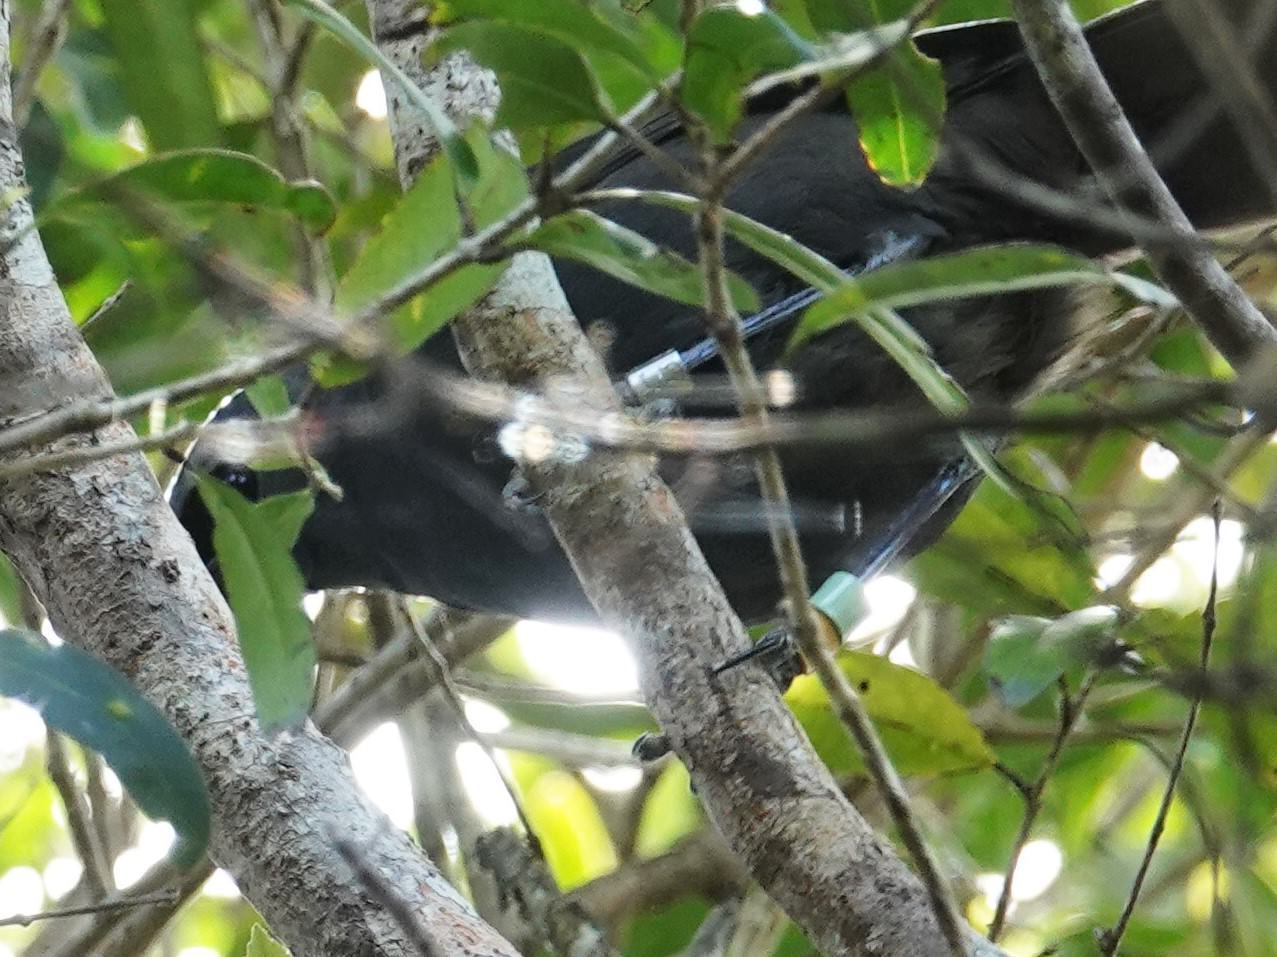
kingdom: Animalia
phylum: Chordata
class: Aves
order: Passeriformes
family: Callaeatidae
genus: Callaeas
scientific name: Callaeas cinereus
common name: South island kokako
